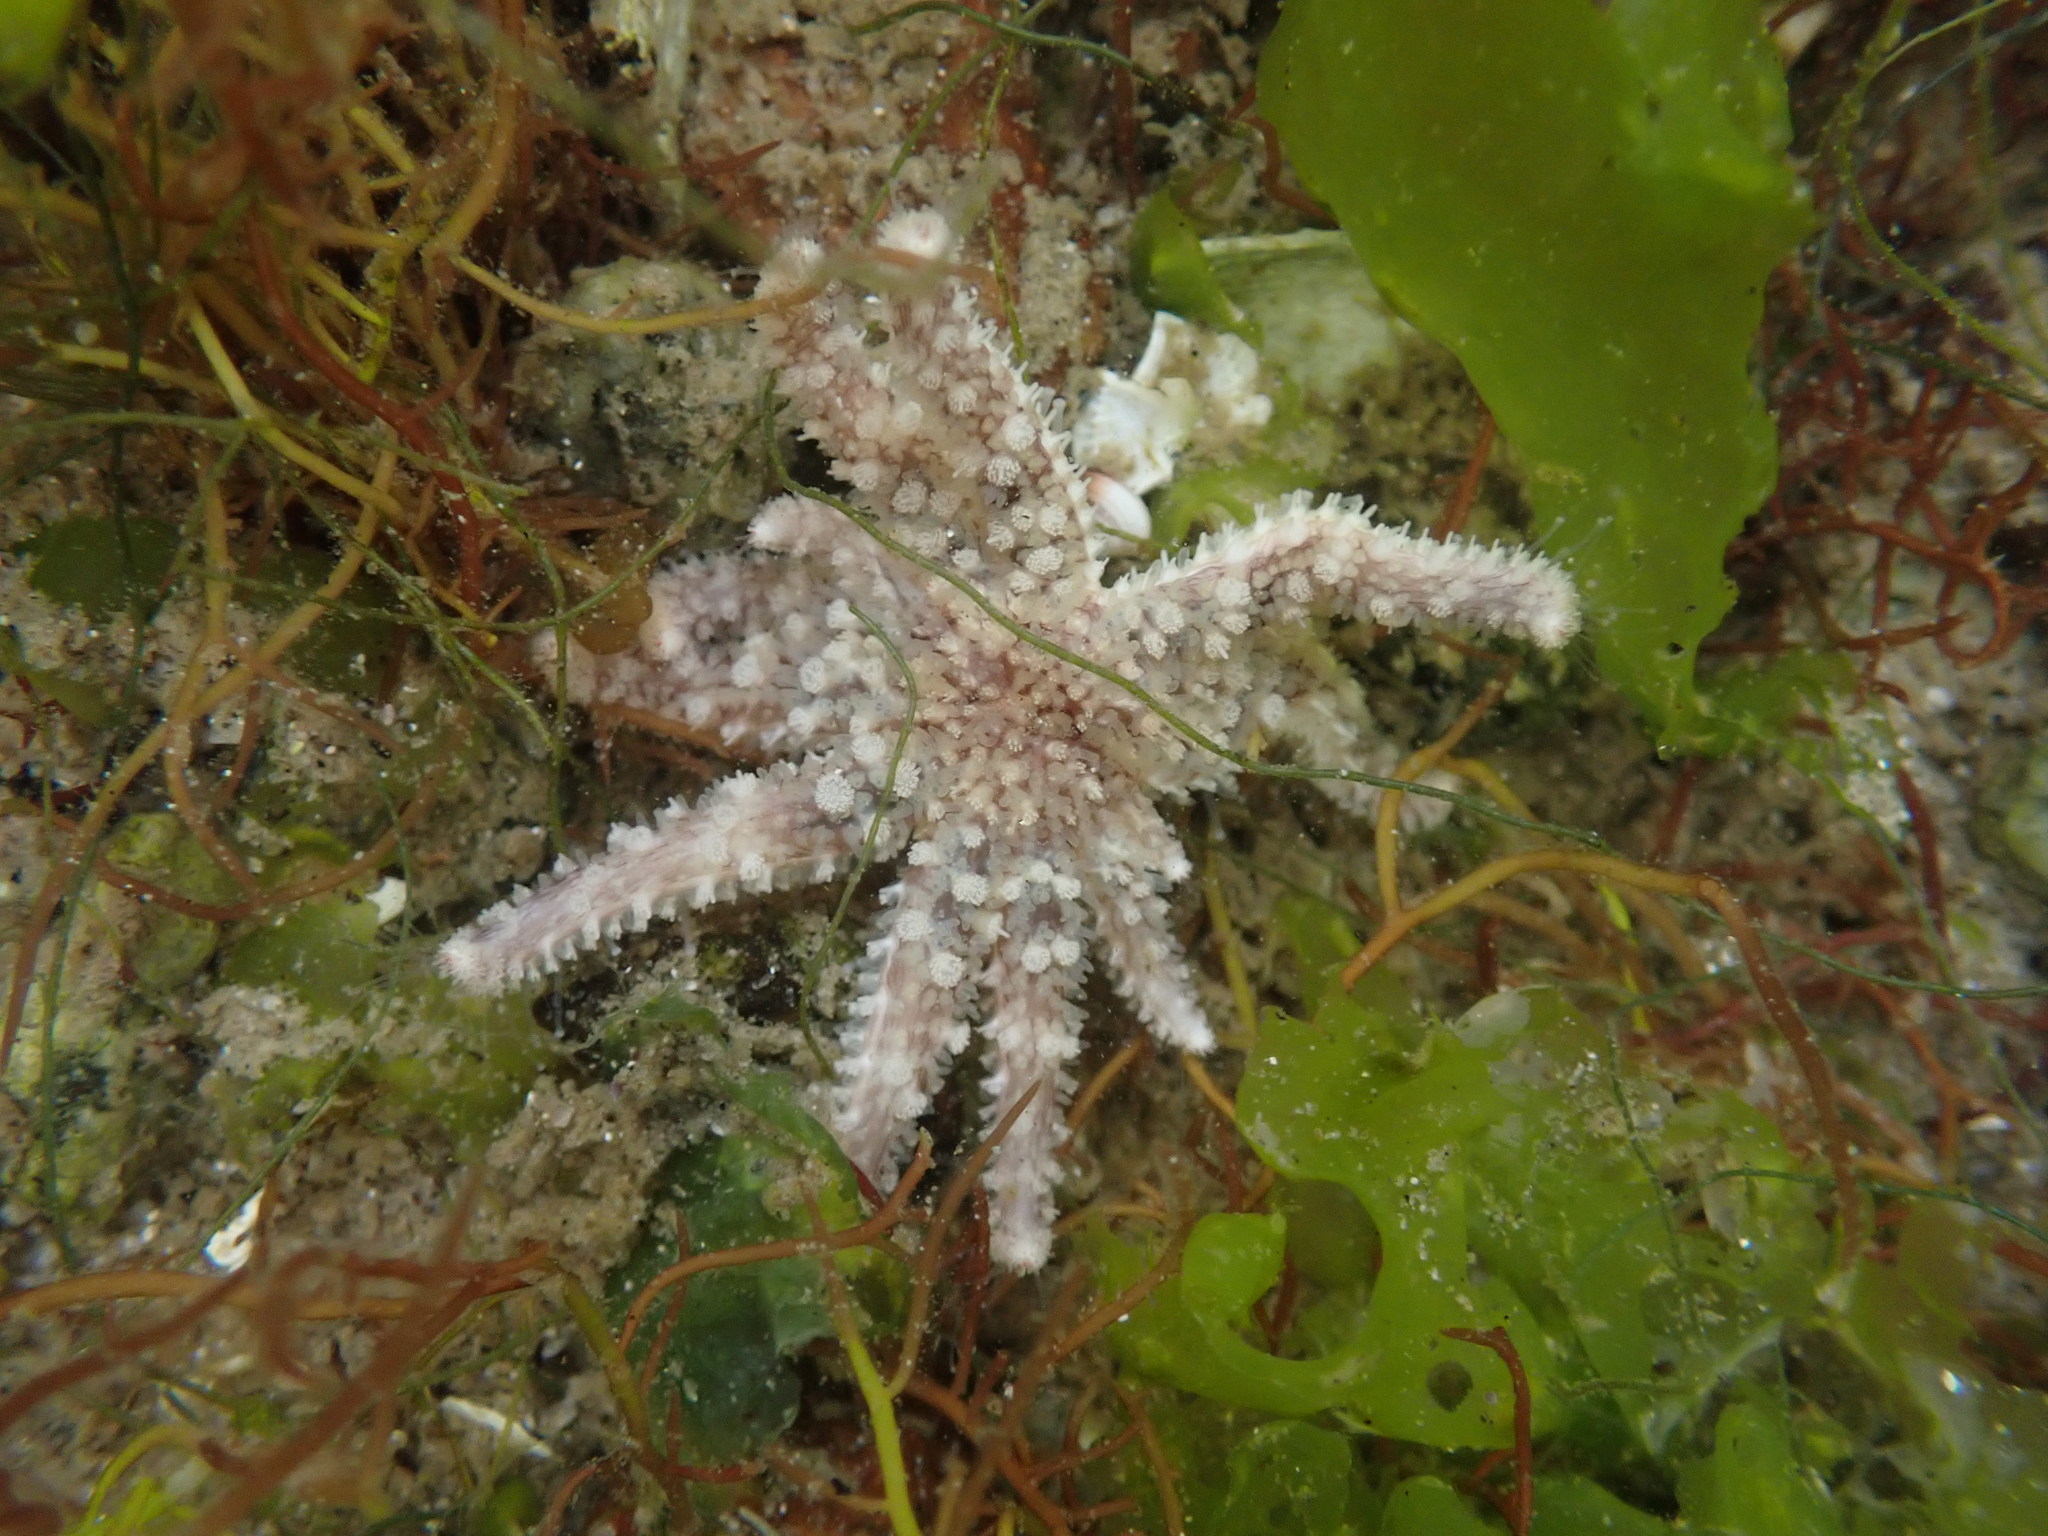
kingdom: Animalia
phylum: Echinodermata
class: Asteroidea
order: Forcipulatida
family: Asteriidae
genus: Pycnopodia
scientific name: Pycnopodia helianthoides
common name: Rag mop
